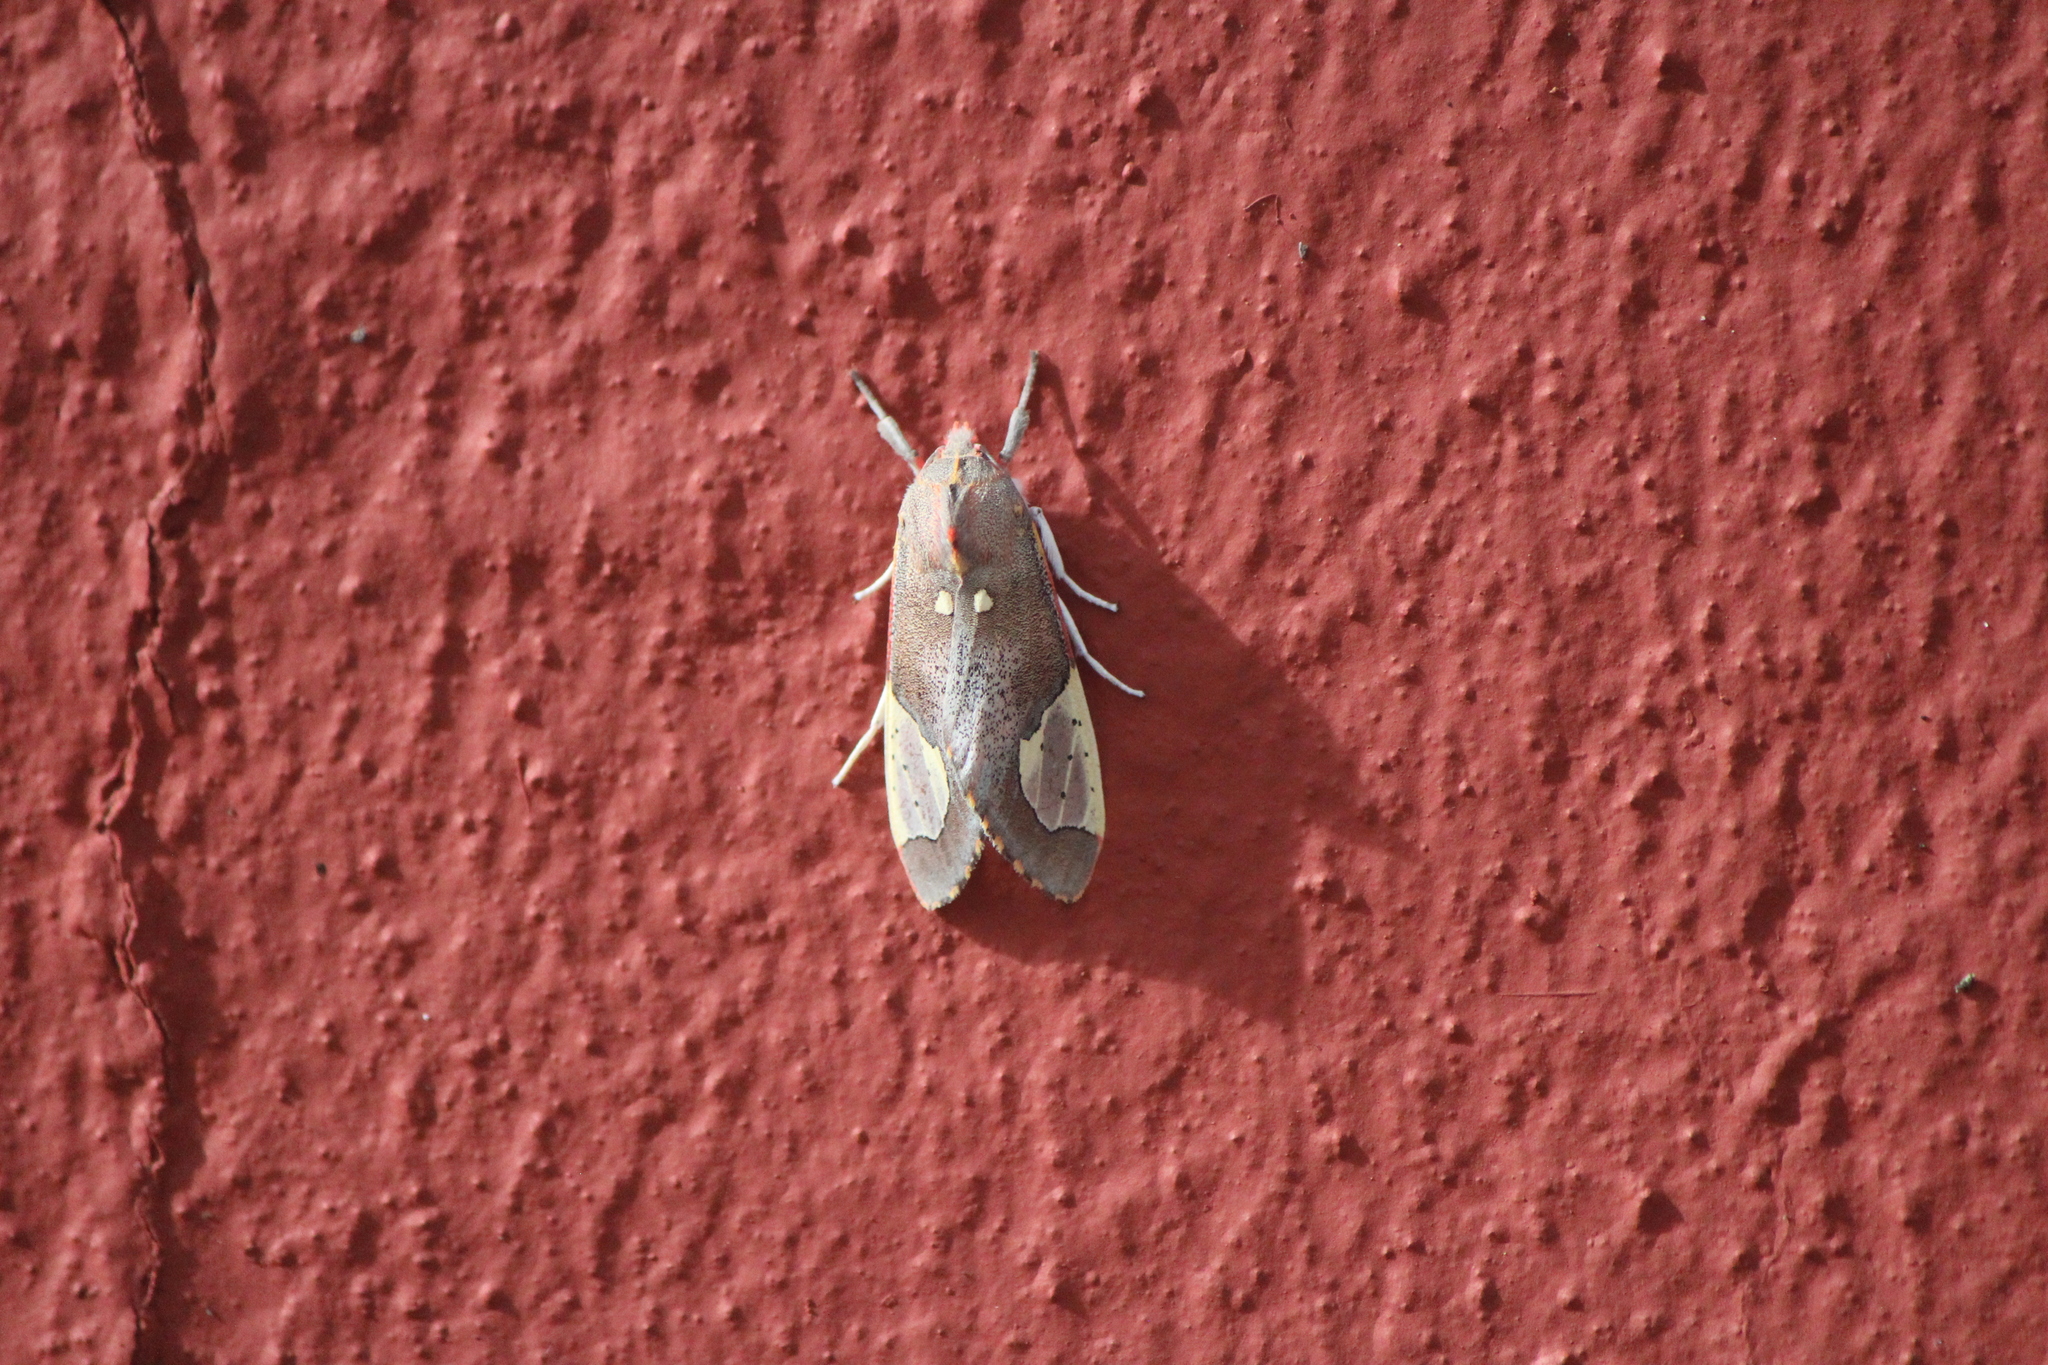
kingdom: Animalia
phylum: Arthropoda
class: Insecta
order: Lepidoptera
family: Erebidae
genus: Bertholdia
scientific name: Bertholdia trigona
